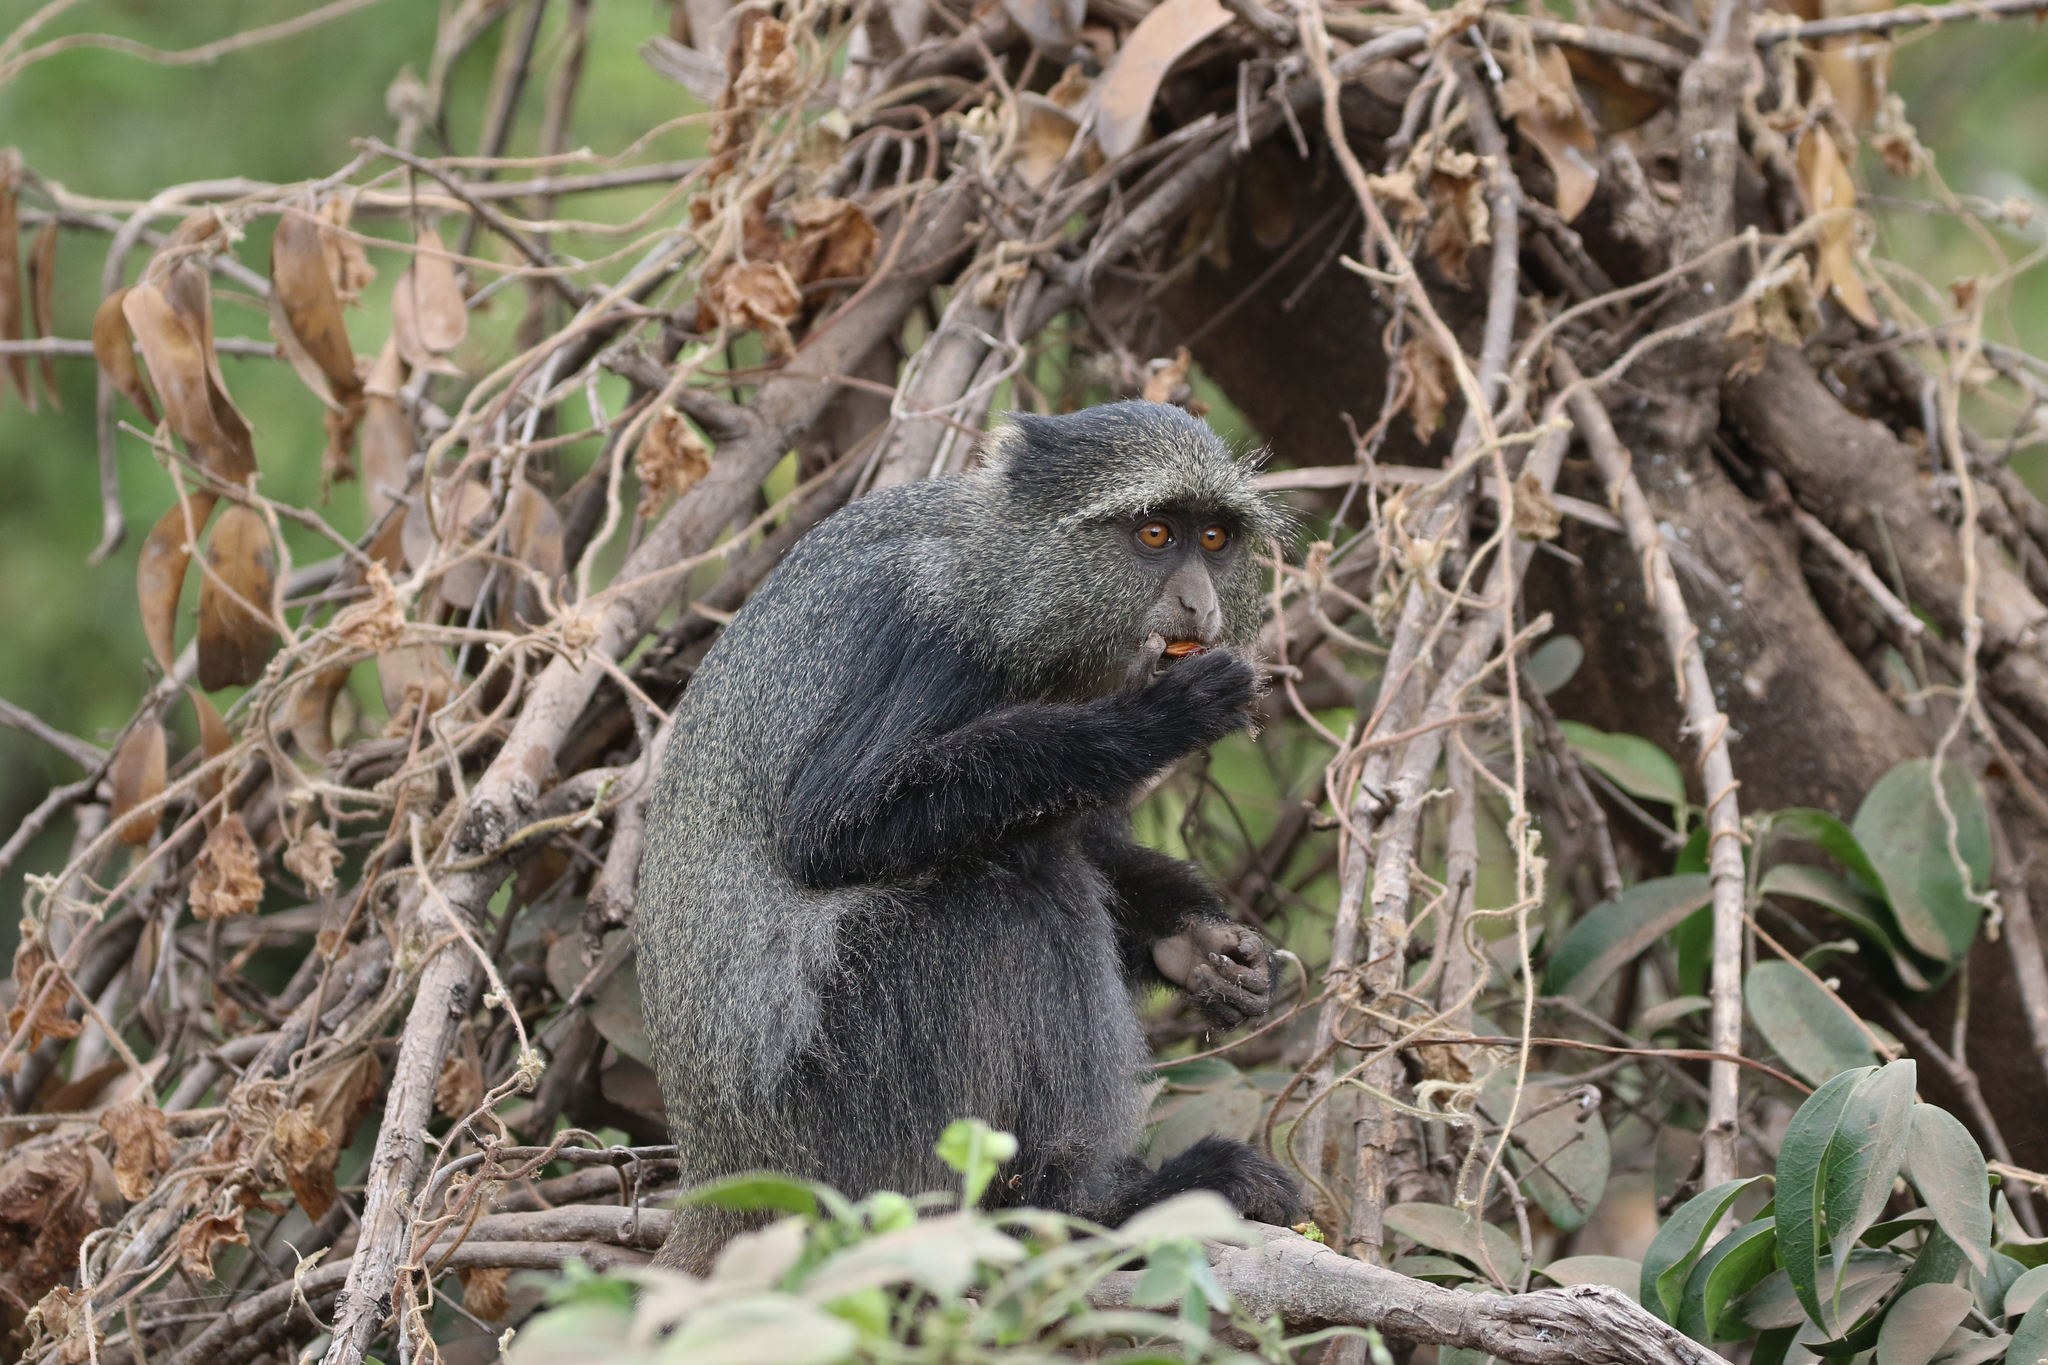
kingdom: Animalia
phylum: Chordata
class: Mammalia
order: Primates
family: Cercopithecidae
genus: Cercopithecus
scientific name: Cercopithecus mitis
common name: Blue monkey
